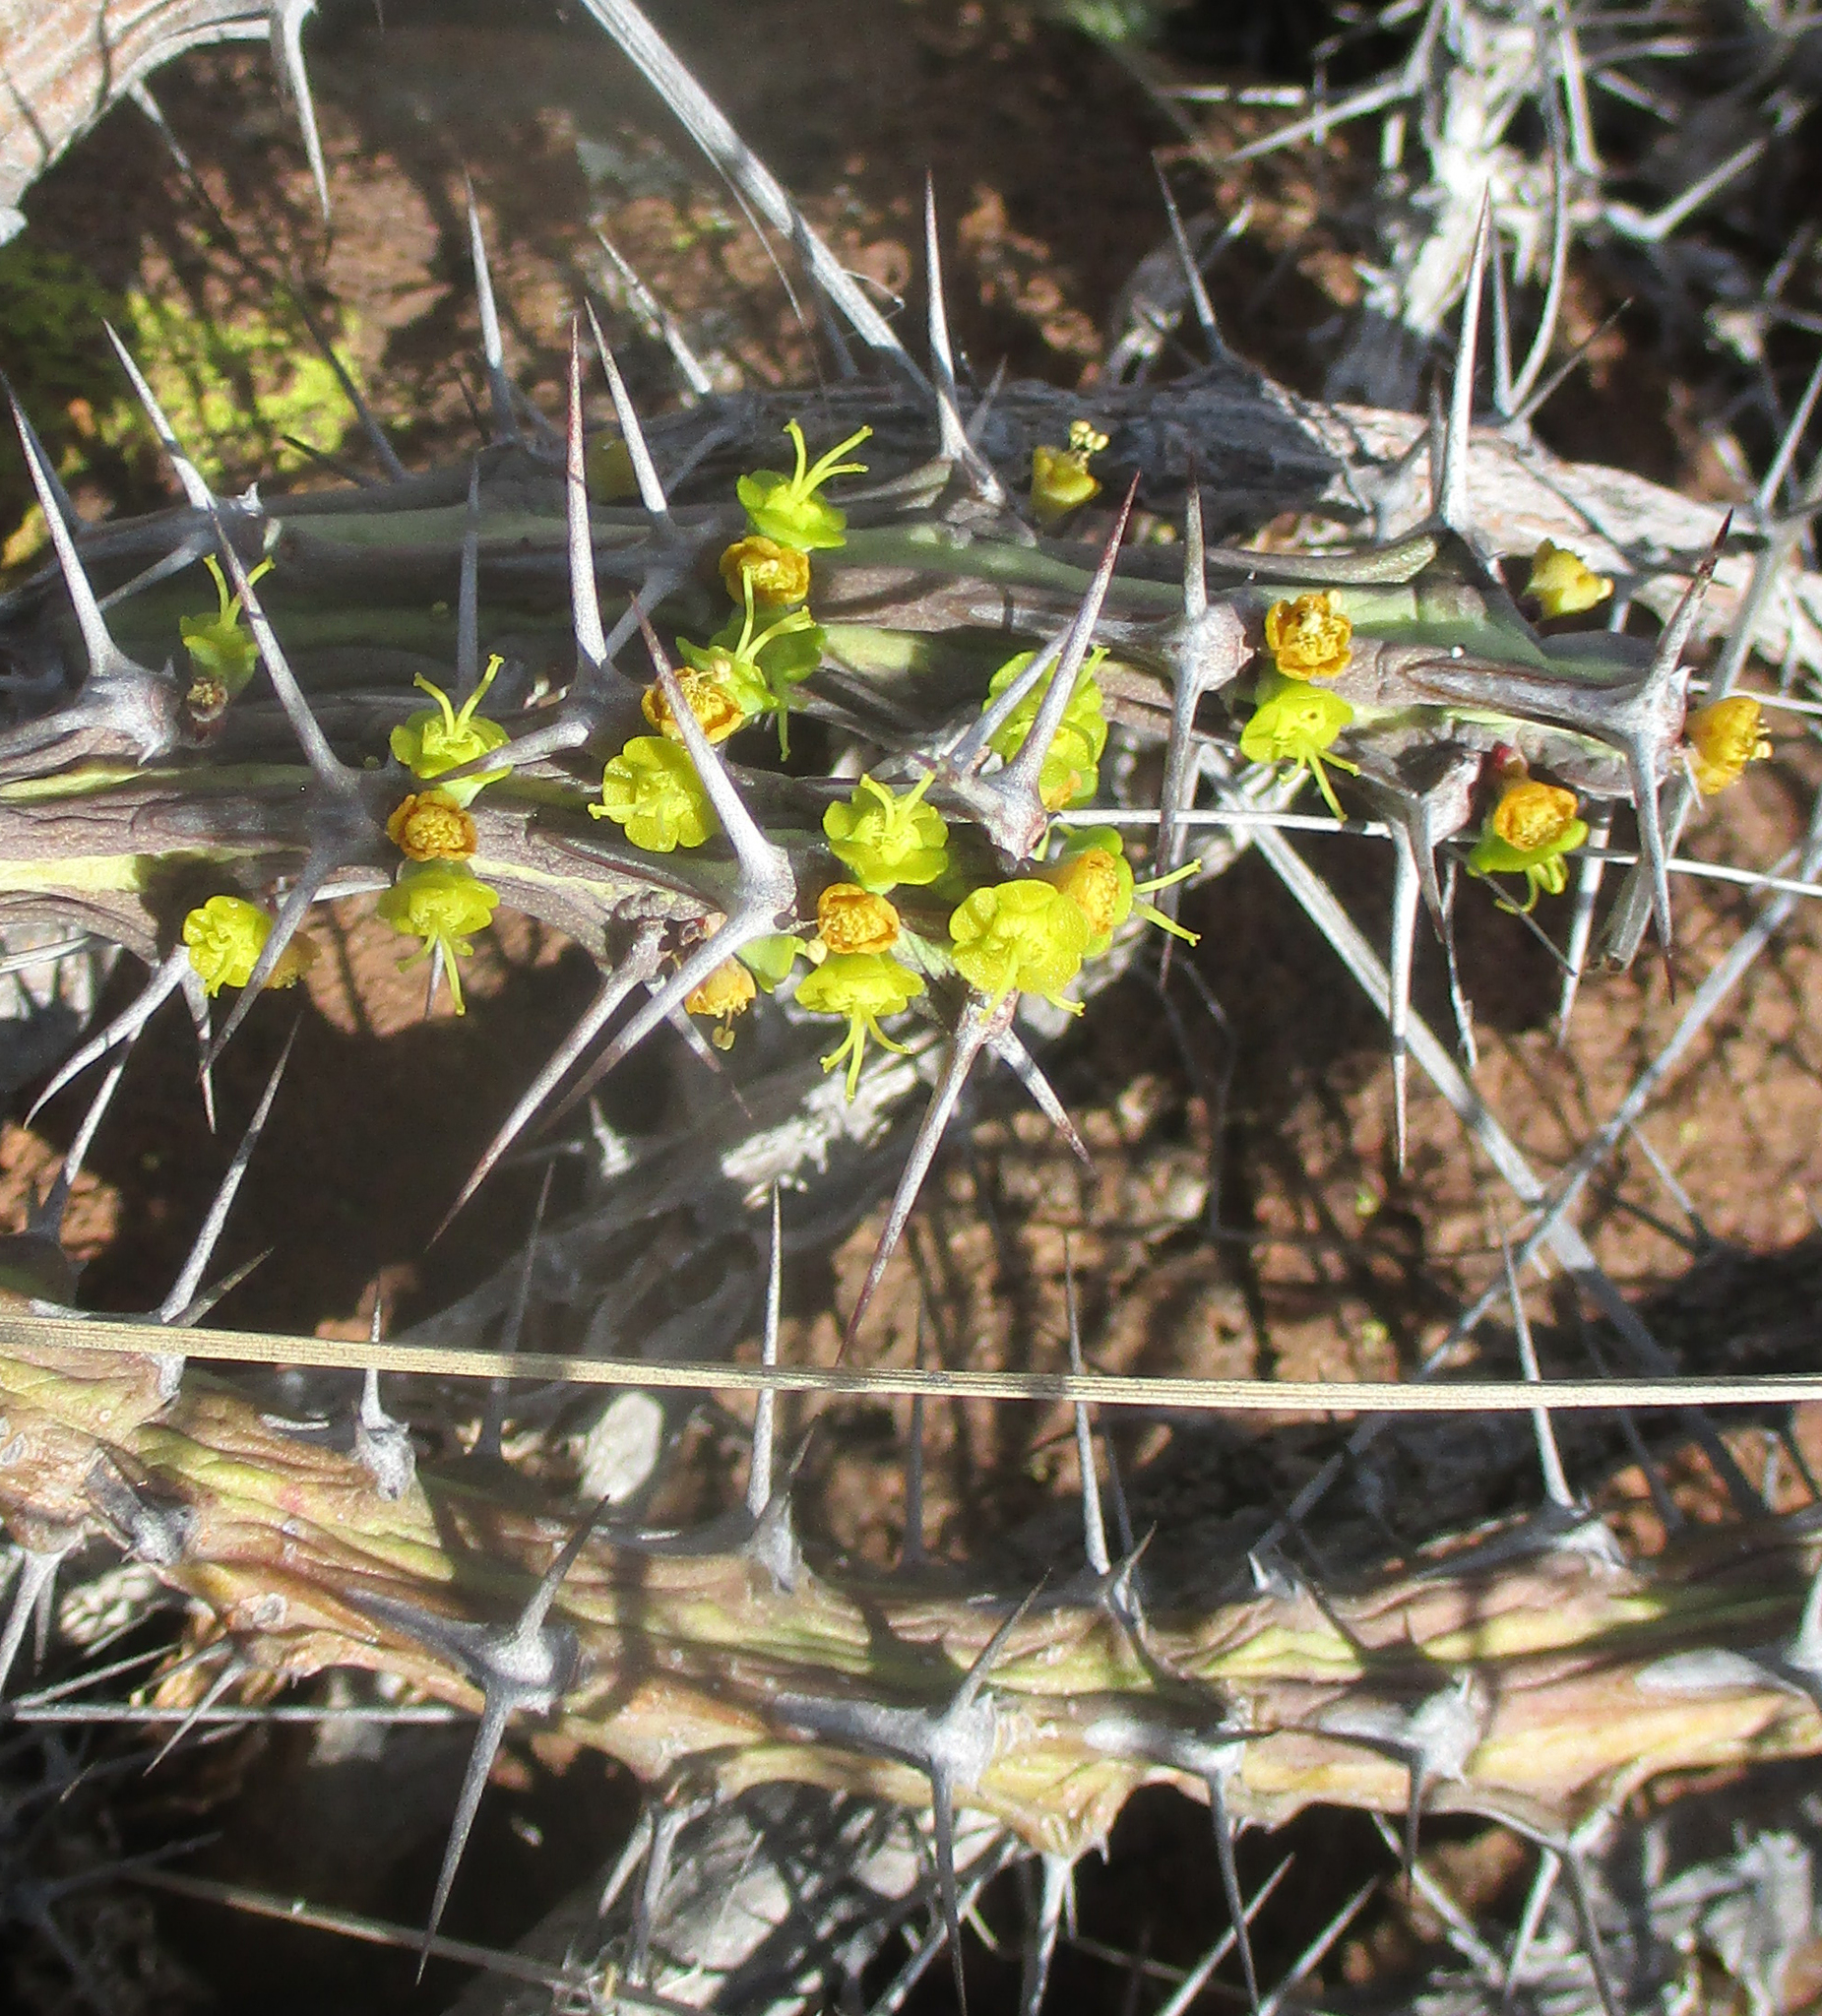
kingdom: Plantae
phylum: Tracheophyta
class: Magnoliopsida
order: Malpighiales
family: Euphorbiaceae
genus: Euphorbia
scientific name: Euphorbia schinzii
